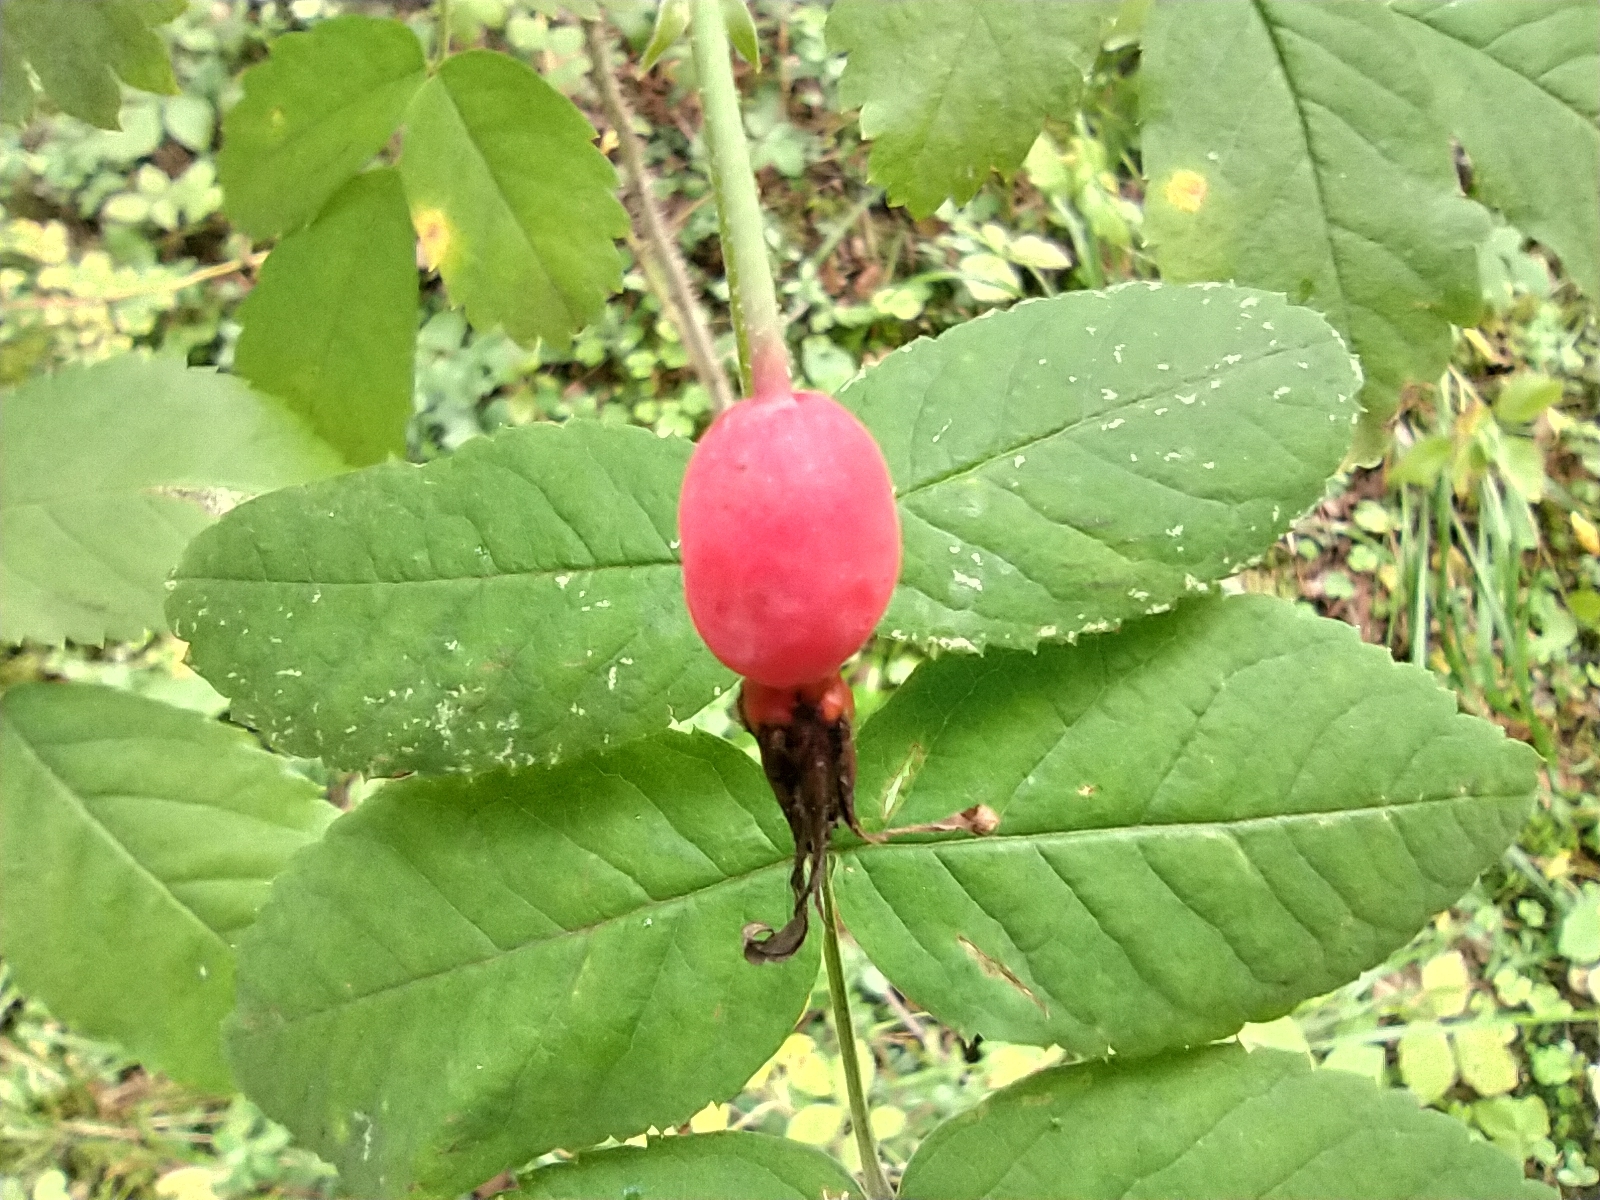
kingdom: Plantae
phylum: Tracheophyta
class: Magnoliopsida
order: Rosales
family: Rosaceae
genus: Rosa
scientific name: Rosa
